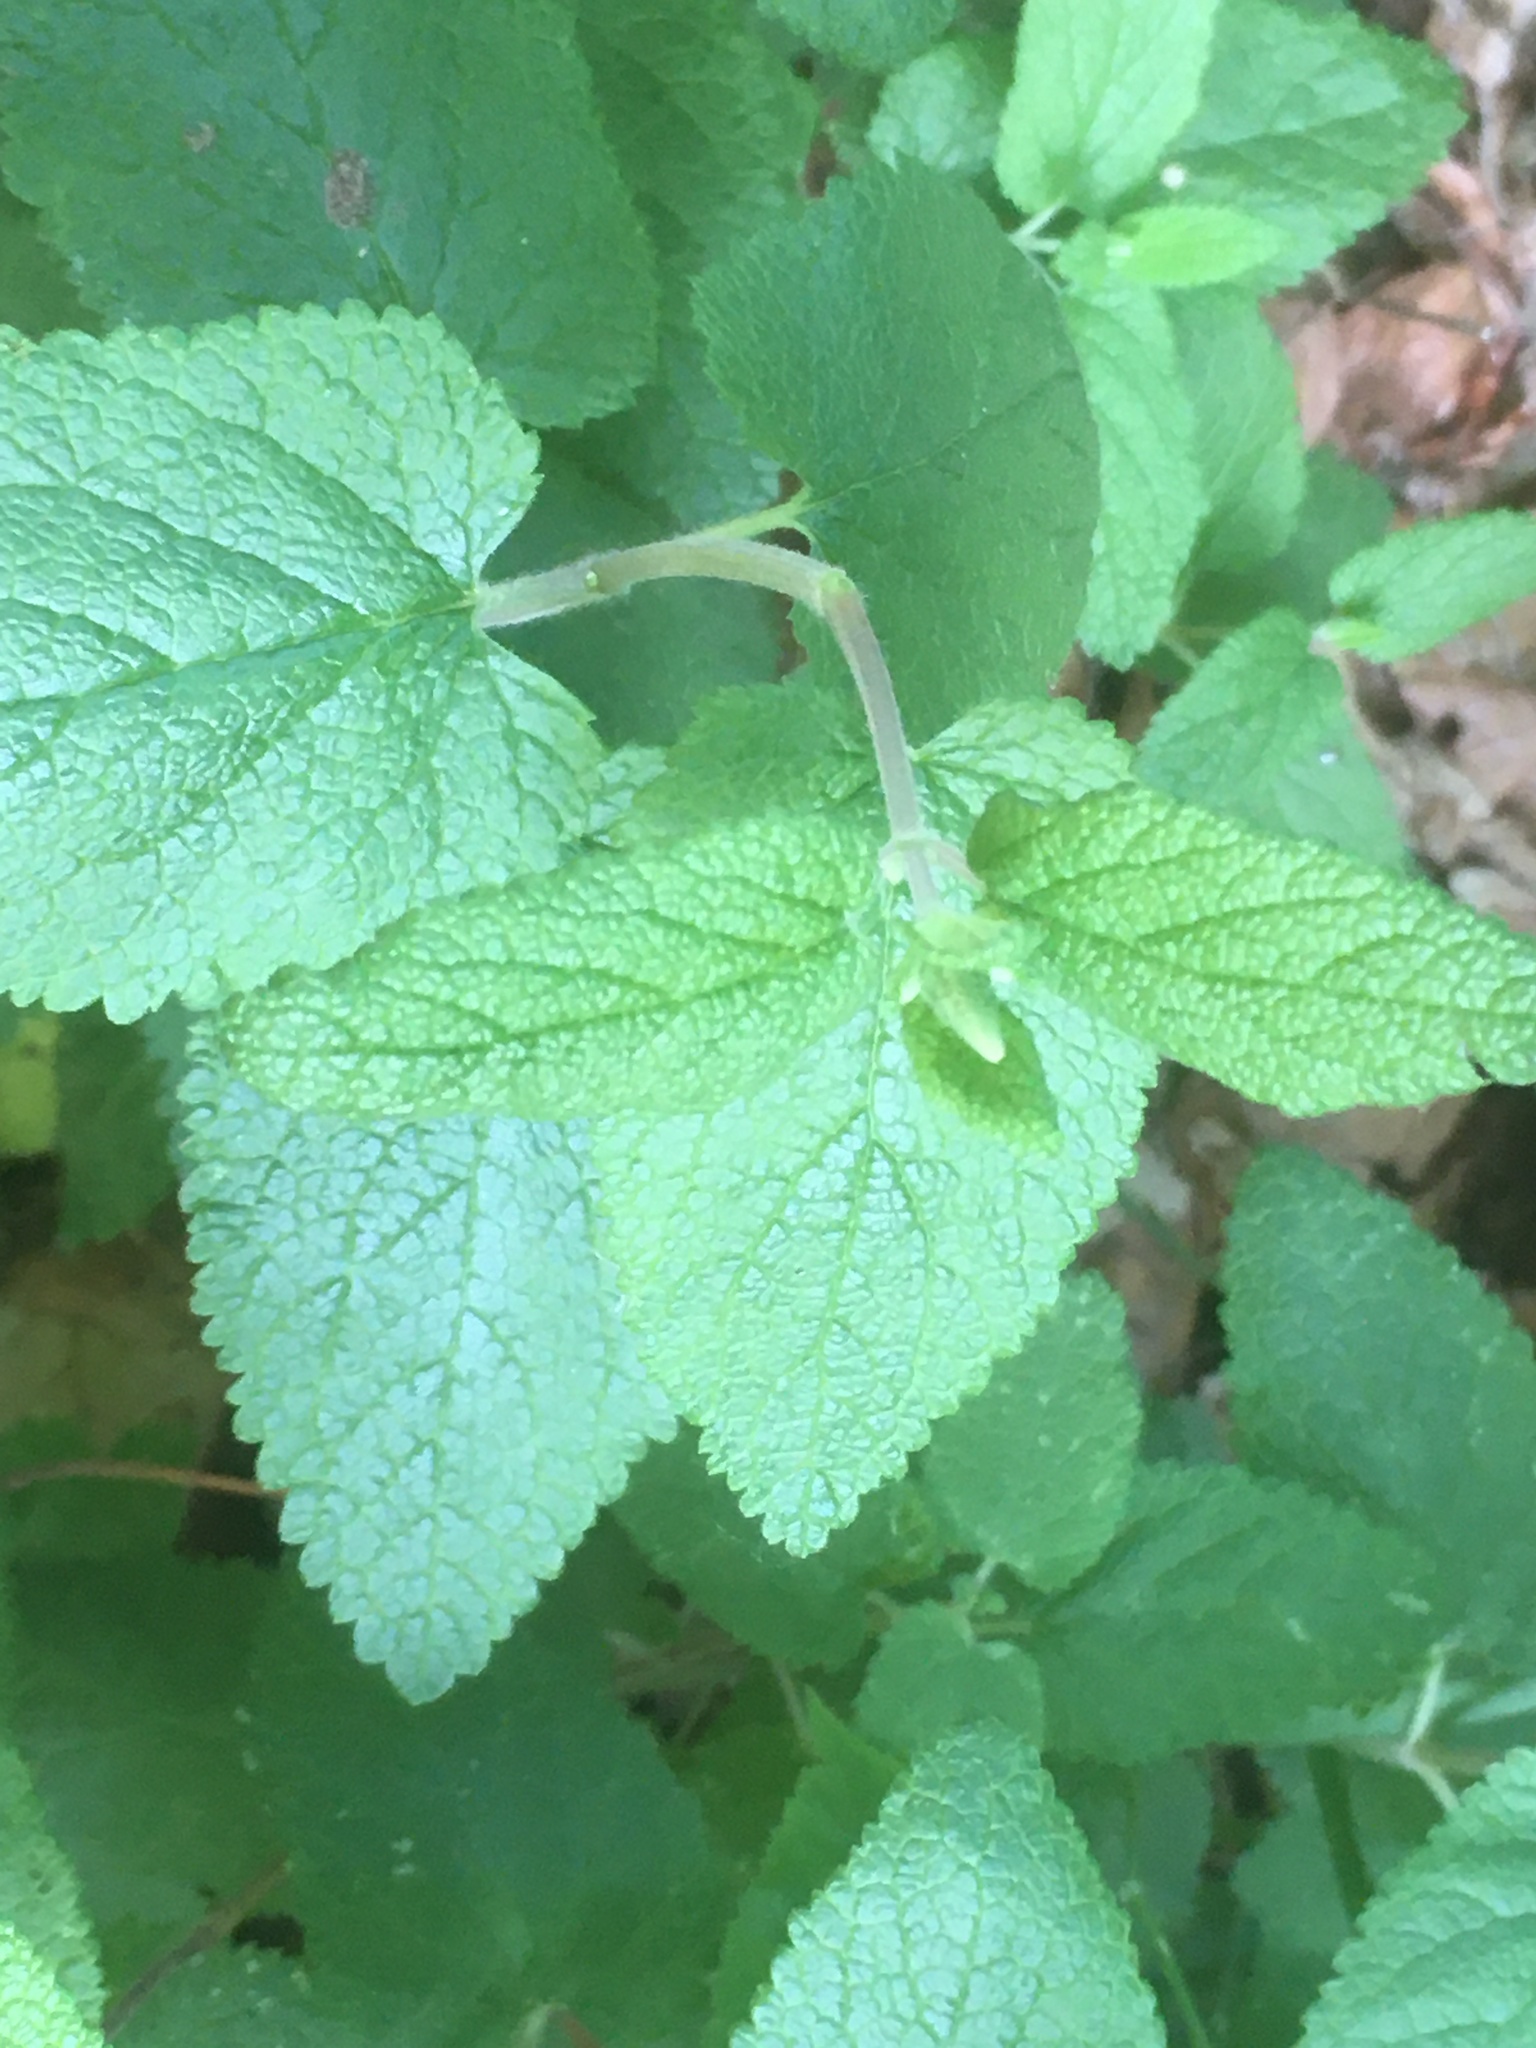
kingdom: Plantae
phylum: Tracheophyta
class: Magnoliopsida
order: Lamiales
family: Lamiaceae
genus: Teucrium
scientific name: Teucrium scorodonia
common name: Woodland germander
